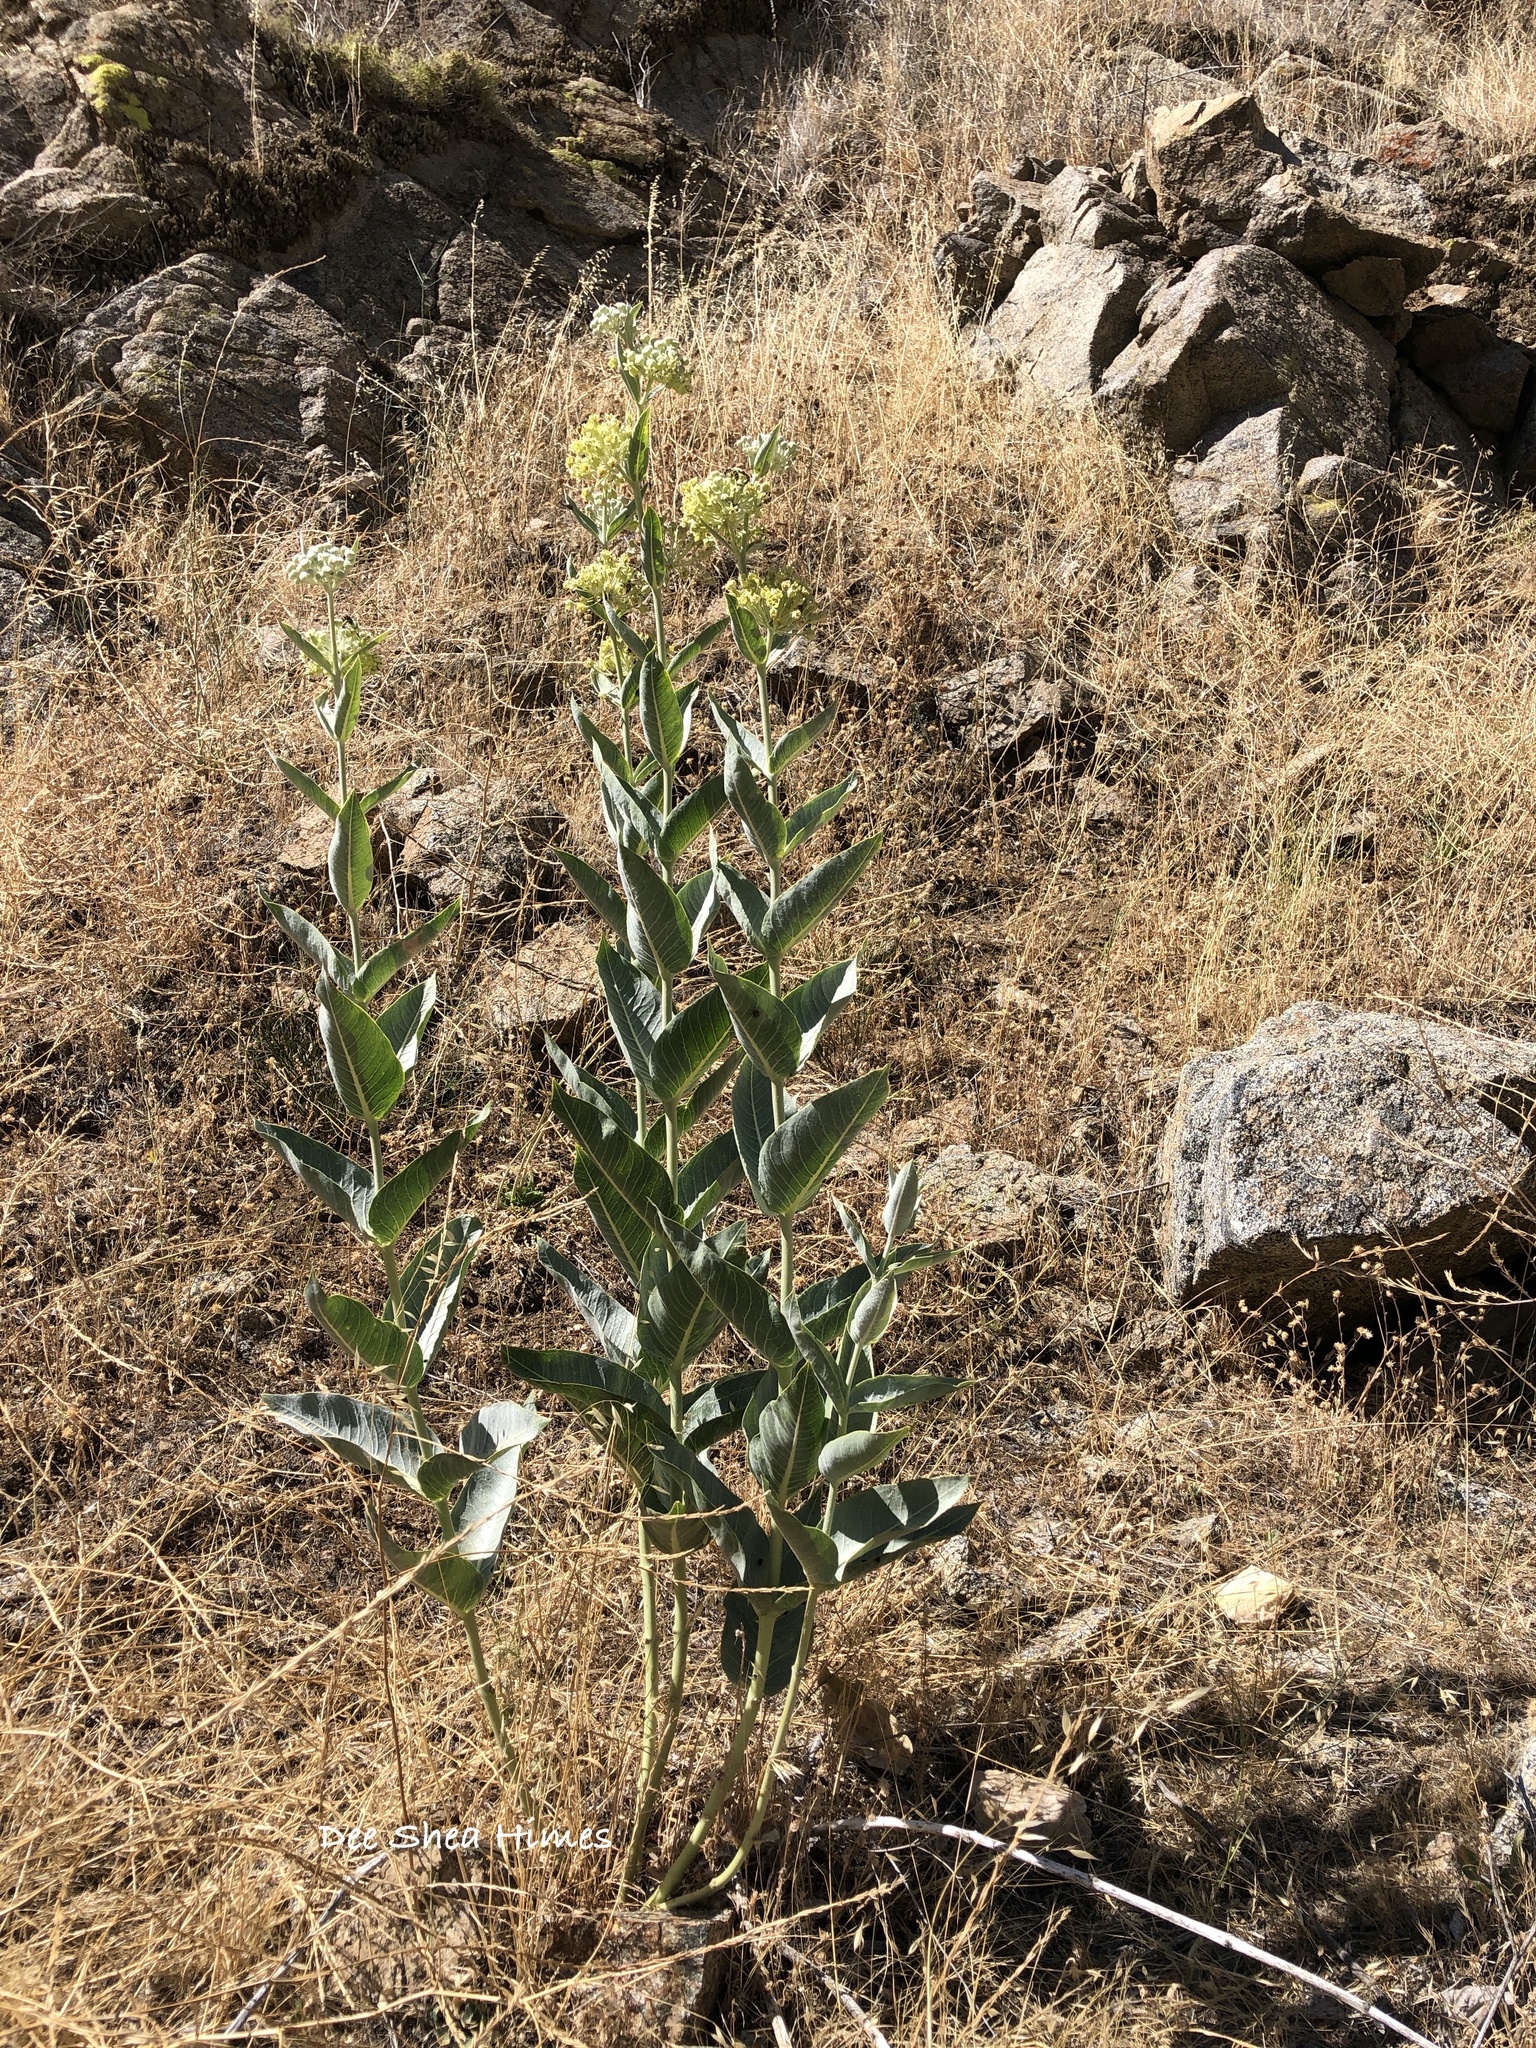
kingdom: Plantae
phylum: Tracheophyta
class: Magnoliopsida
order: Gentianales
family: Apocynaceae
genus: Asclepias
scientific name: Asclepias erosa
